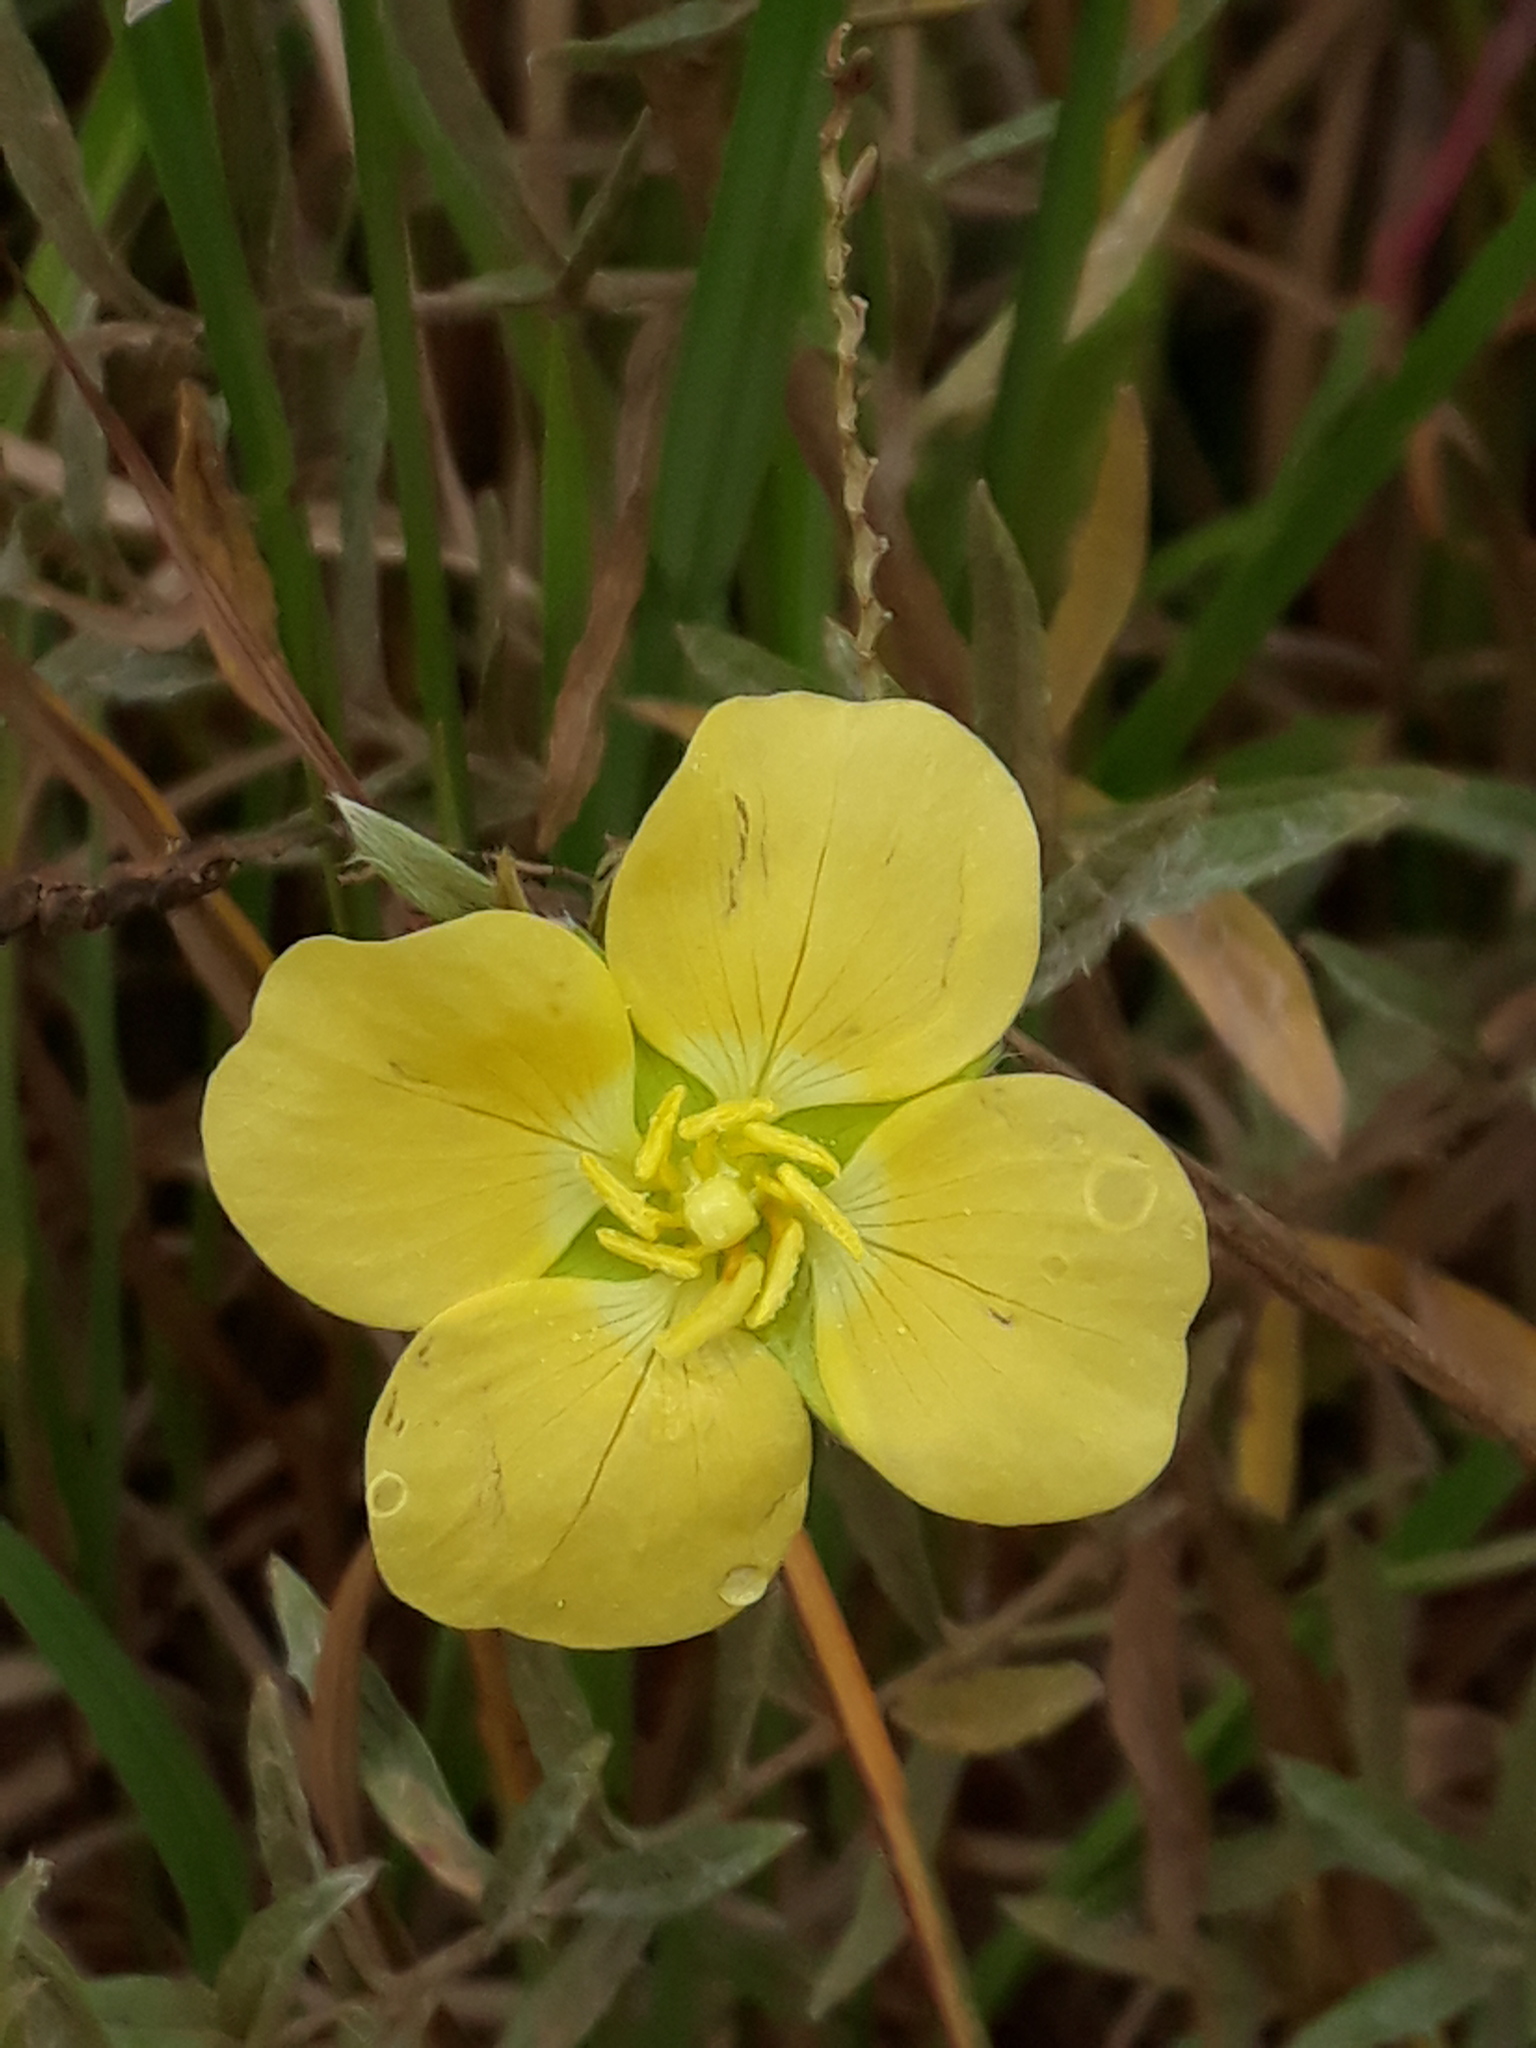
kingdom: Plantae
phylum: Tracheophyta
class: Magnoliopsida
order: Myrtales
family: Onagraceae
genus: Ludwigia
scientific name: Ludwigia sericea
